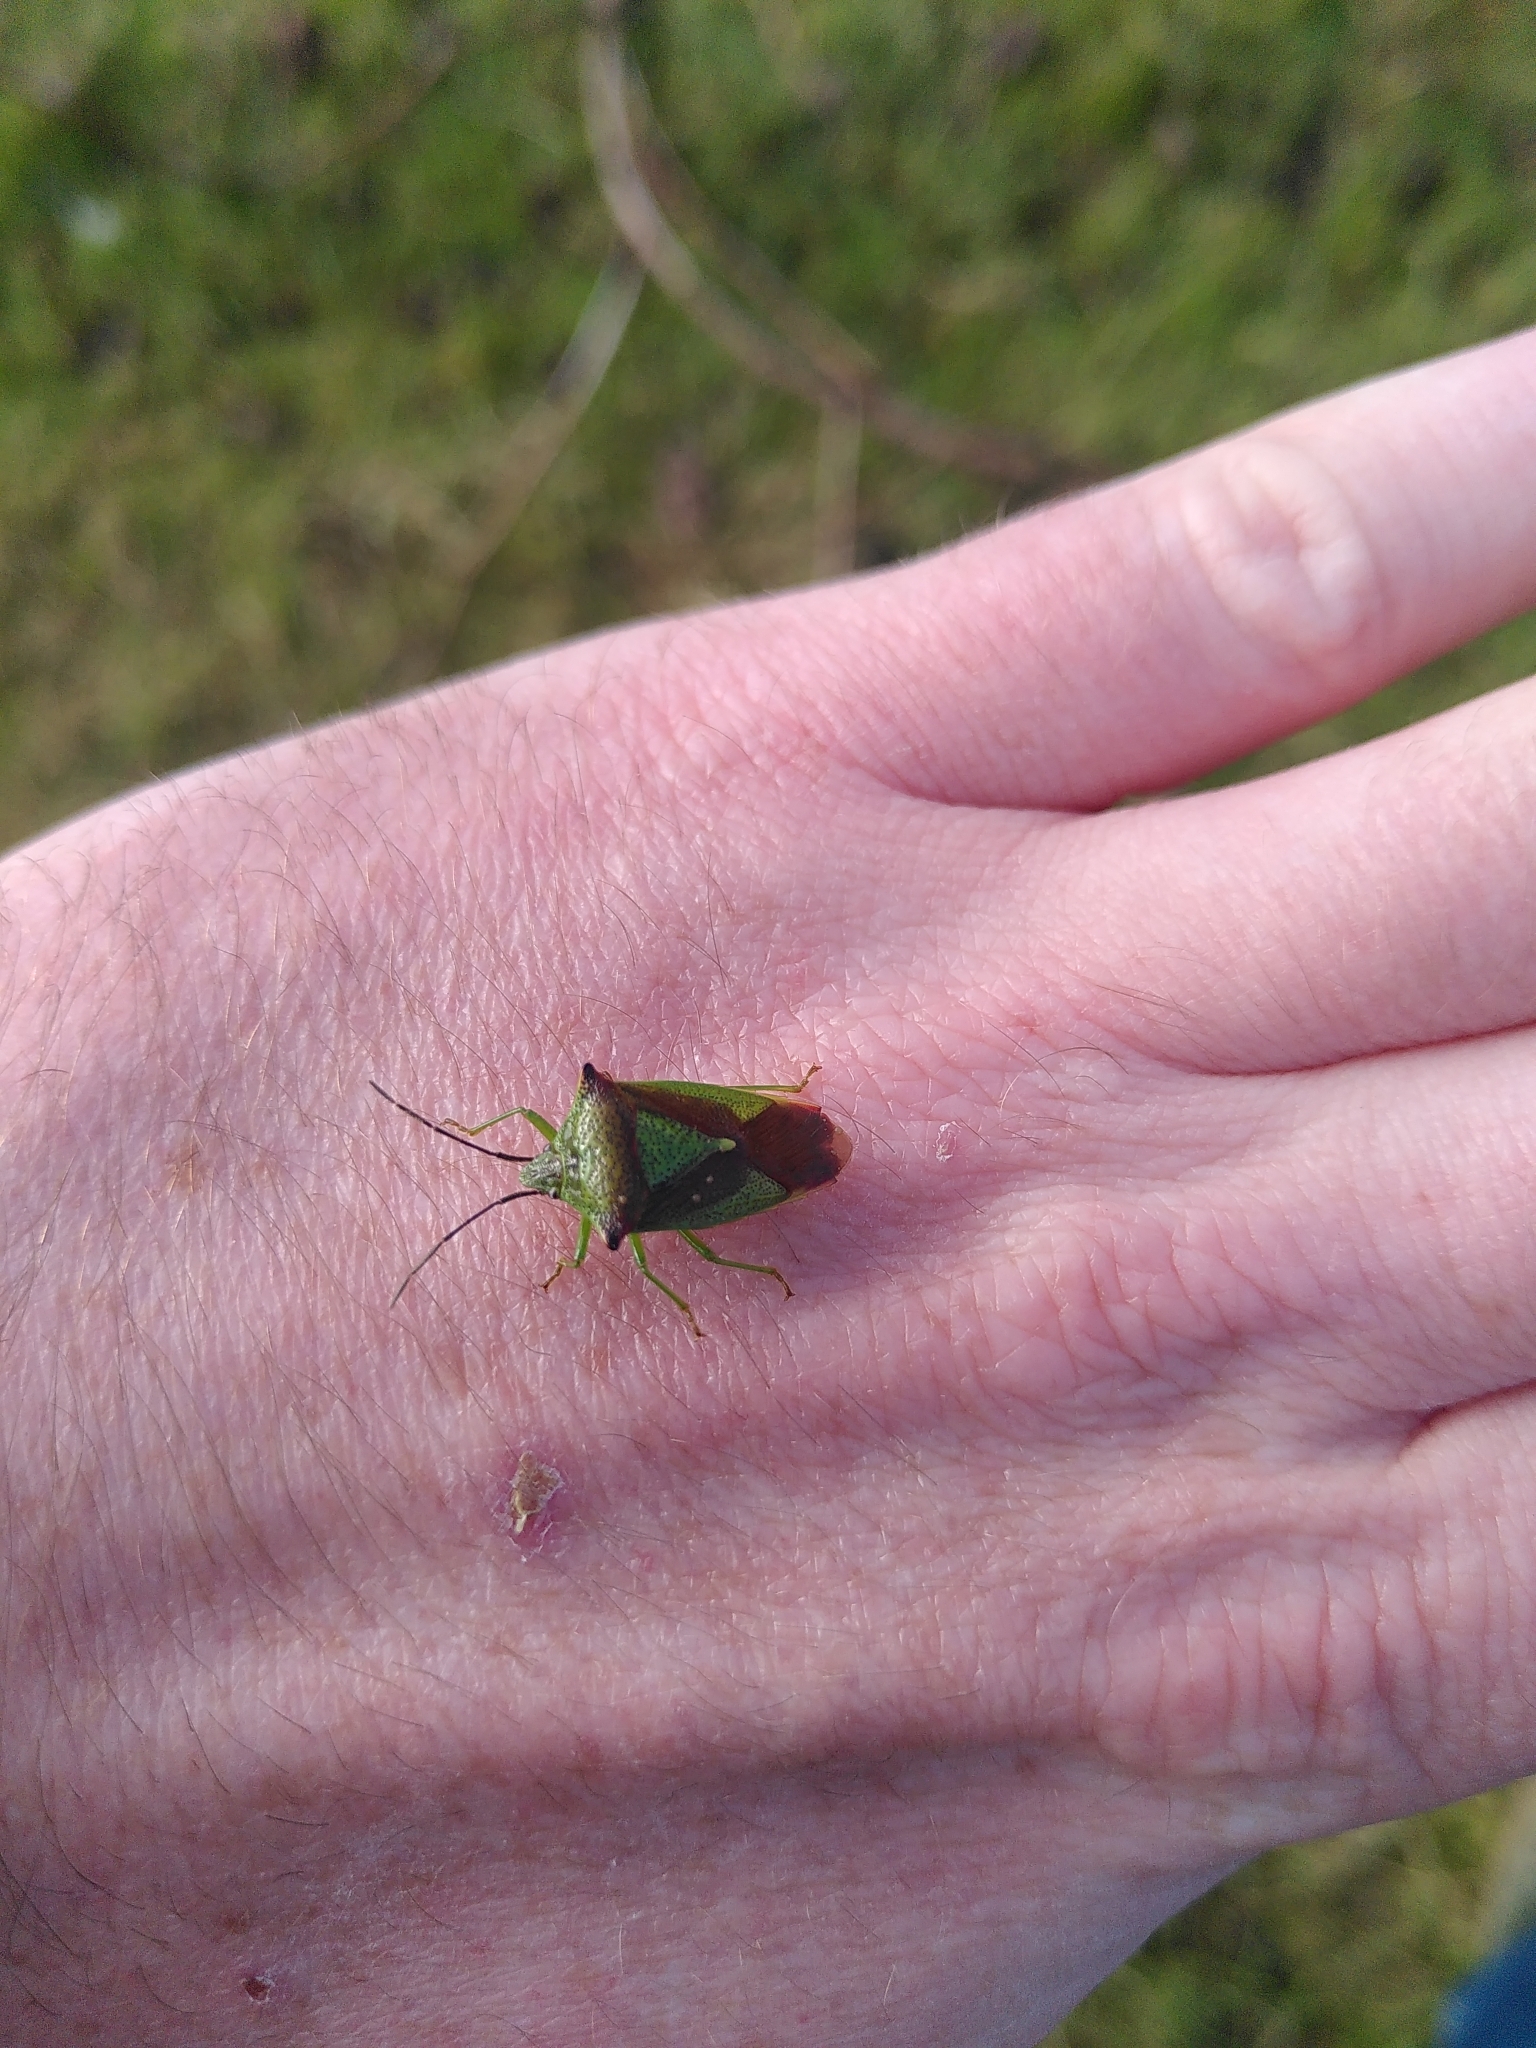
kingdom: Animalia
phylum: Arthropoda
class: Insecta
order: Hemiptera
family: Acanthosomatidae
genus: Acanthosoma
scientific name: Acanthosoma haemorrhoidale
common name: Hawthorn shieldbug
